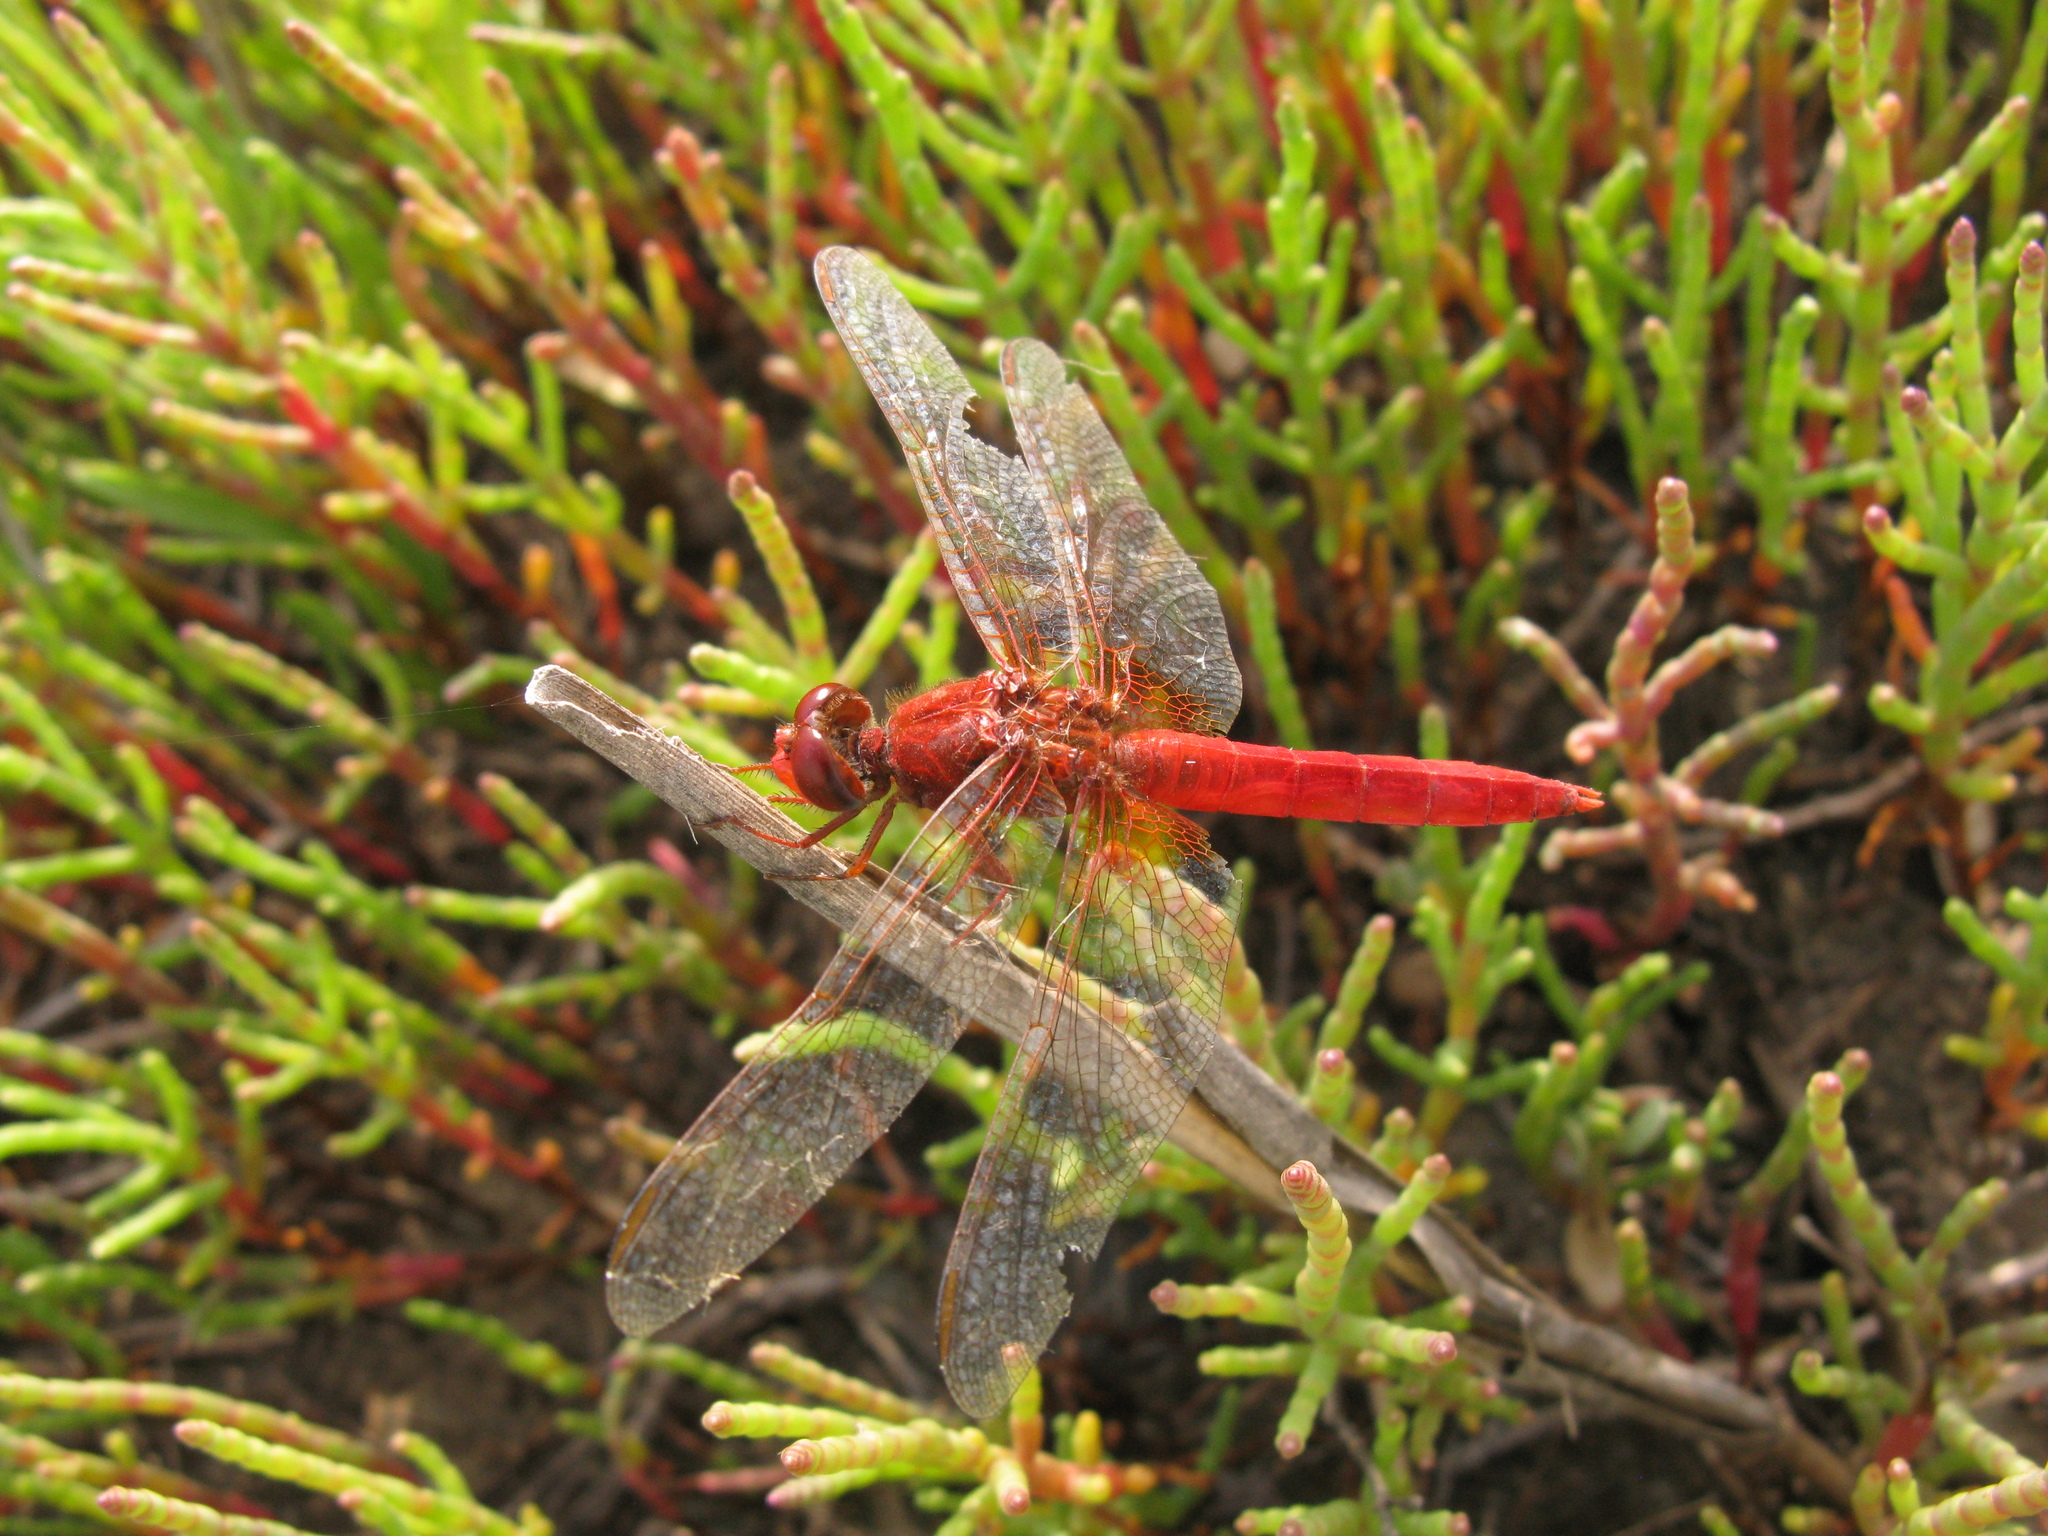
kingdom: Animalia
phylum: Arthropoda
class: Insecta
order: Odonata
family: Libellulidae
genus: Crocothemis
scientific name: Crocothemis erythraea
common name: Scarlet dragonfly
